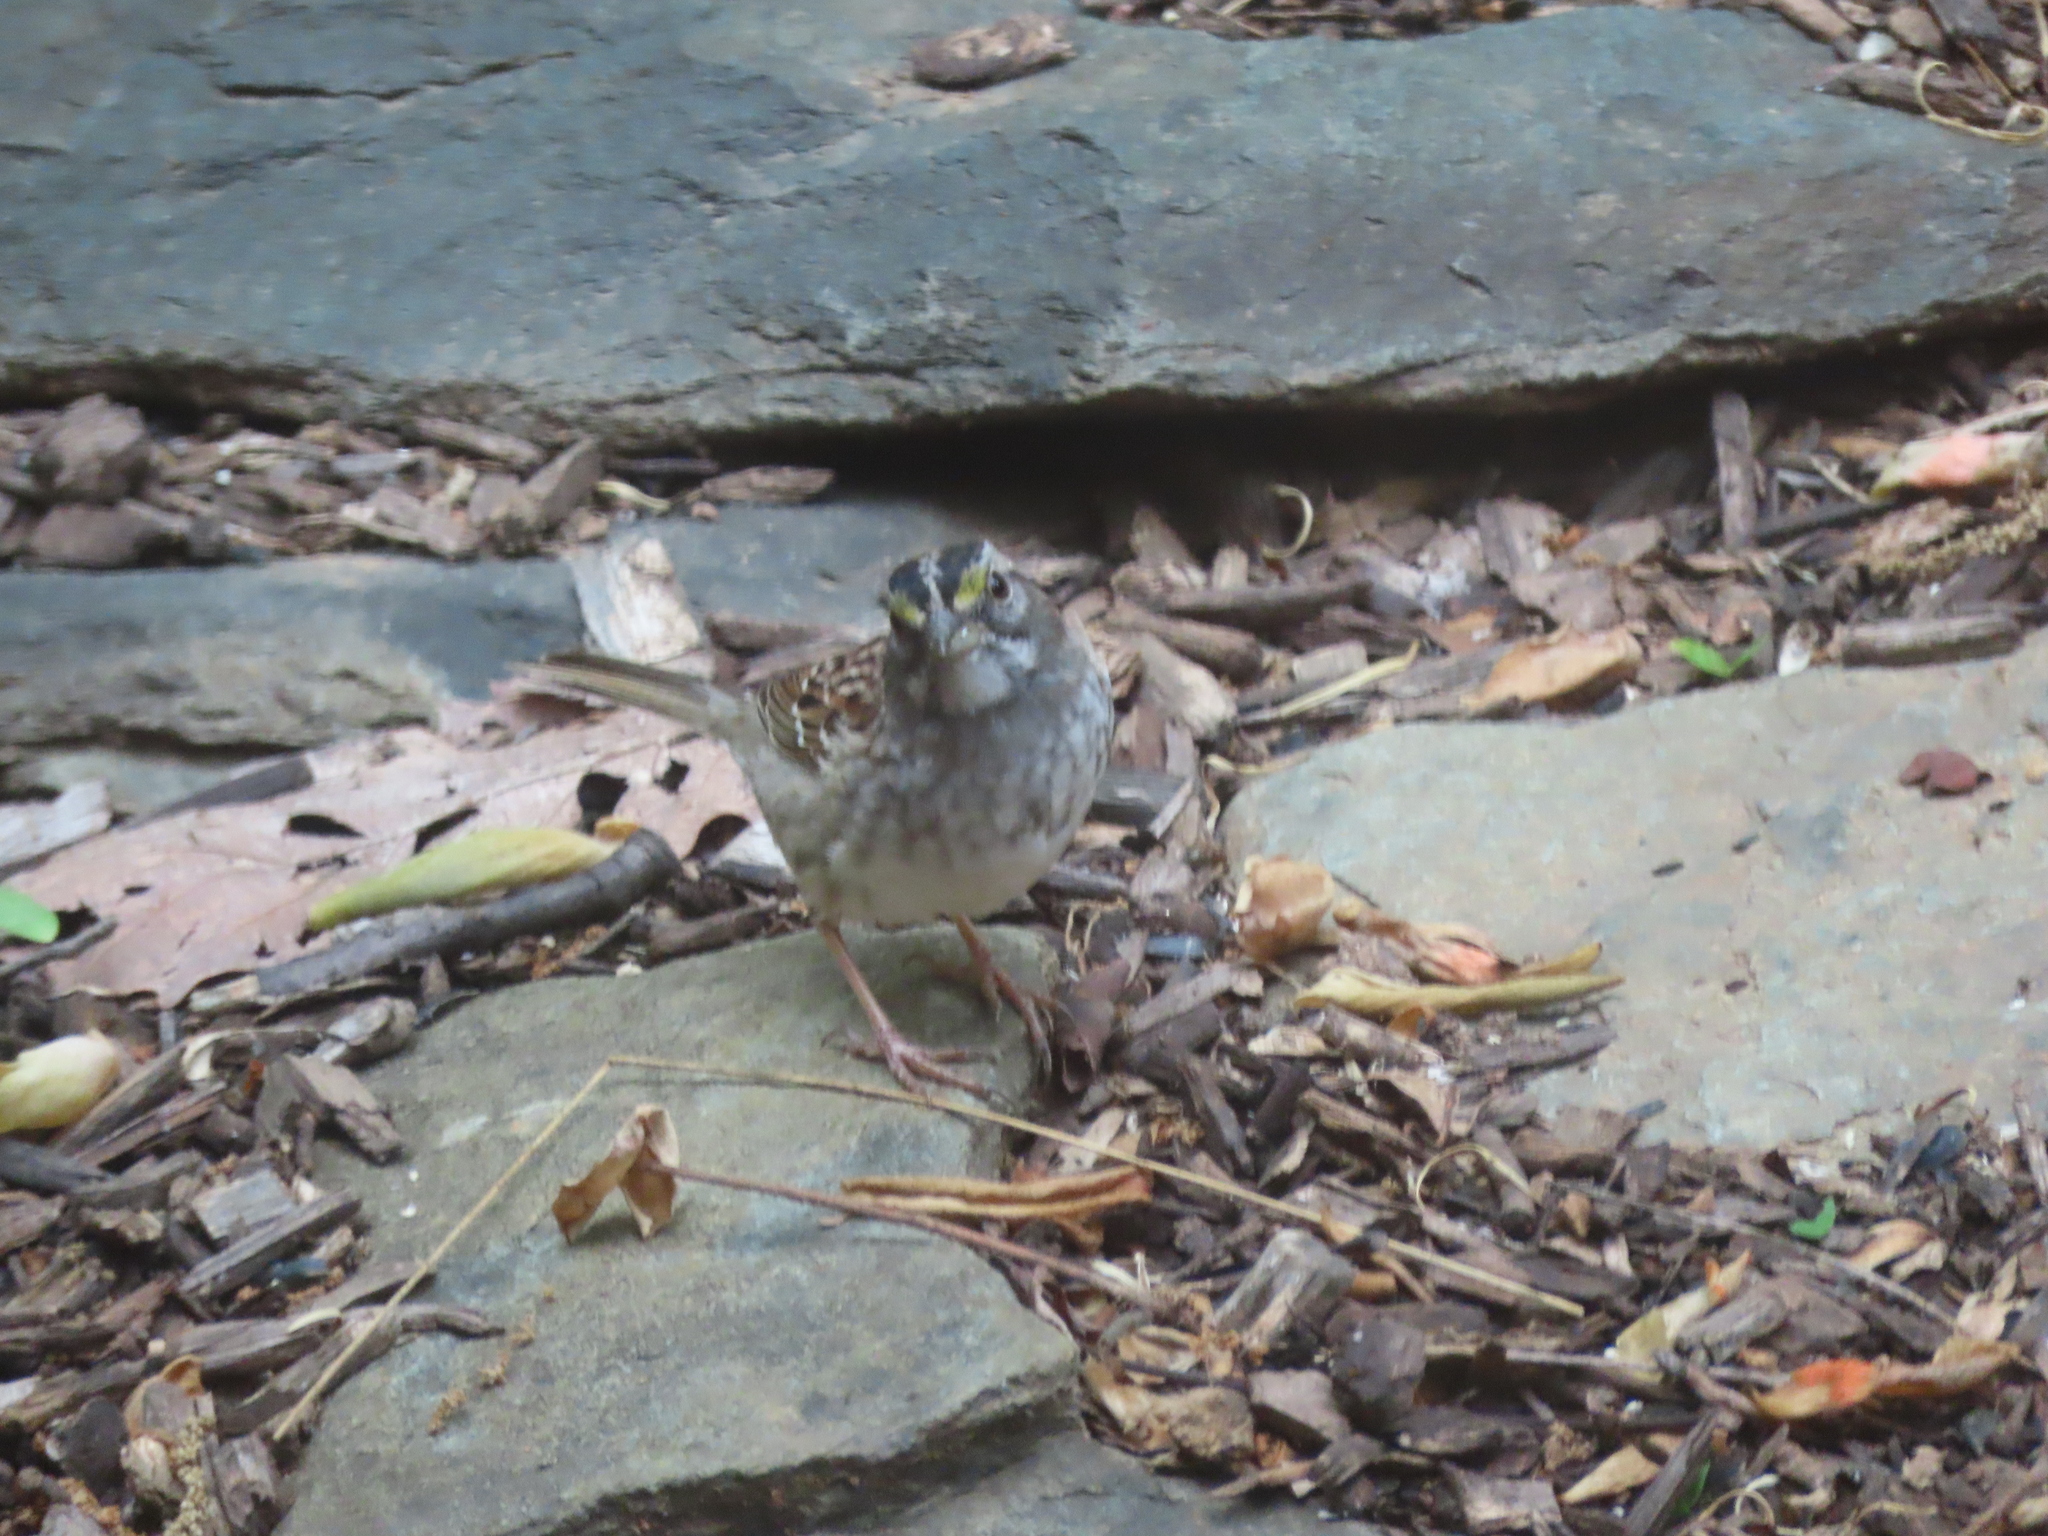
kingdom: Animalia
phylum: Chordata
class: Aves
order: Passeriformes
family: Passerellidae
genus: Zonotrichia
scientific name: Zonotrichia albicollis
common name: White-throated sparrow
